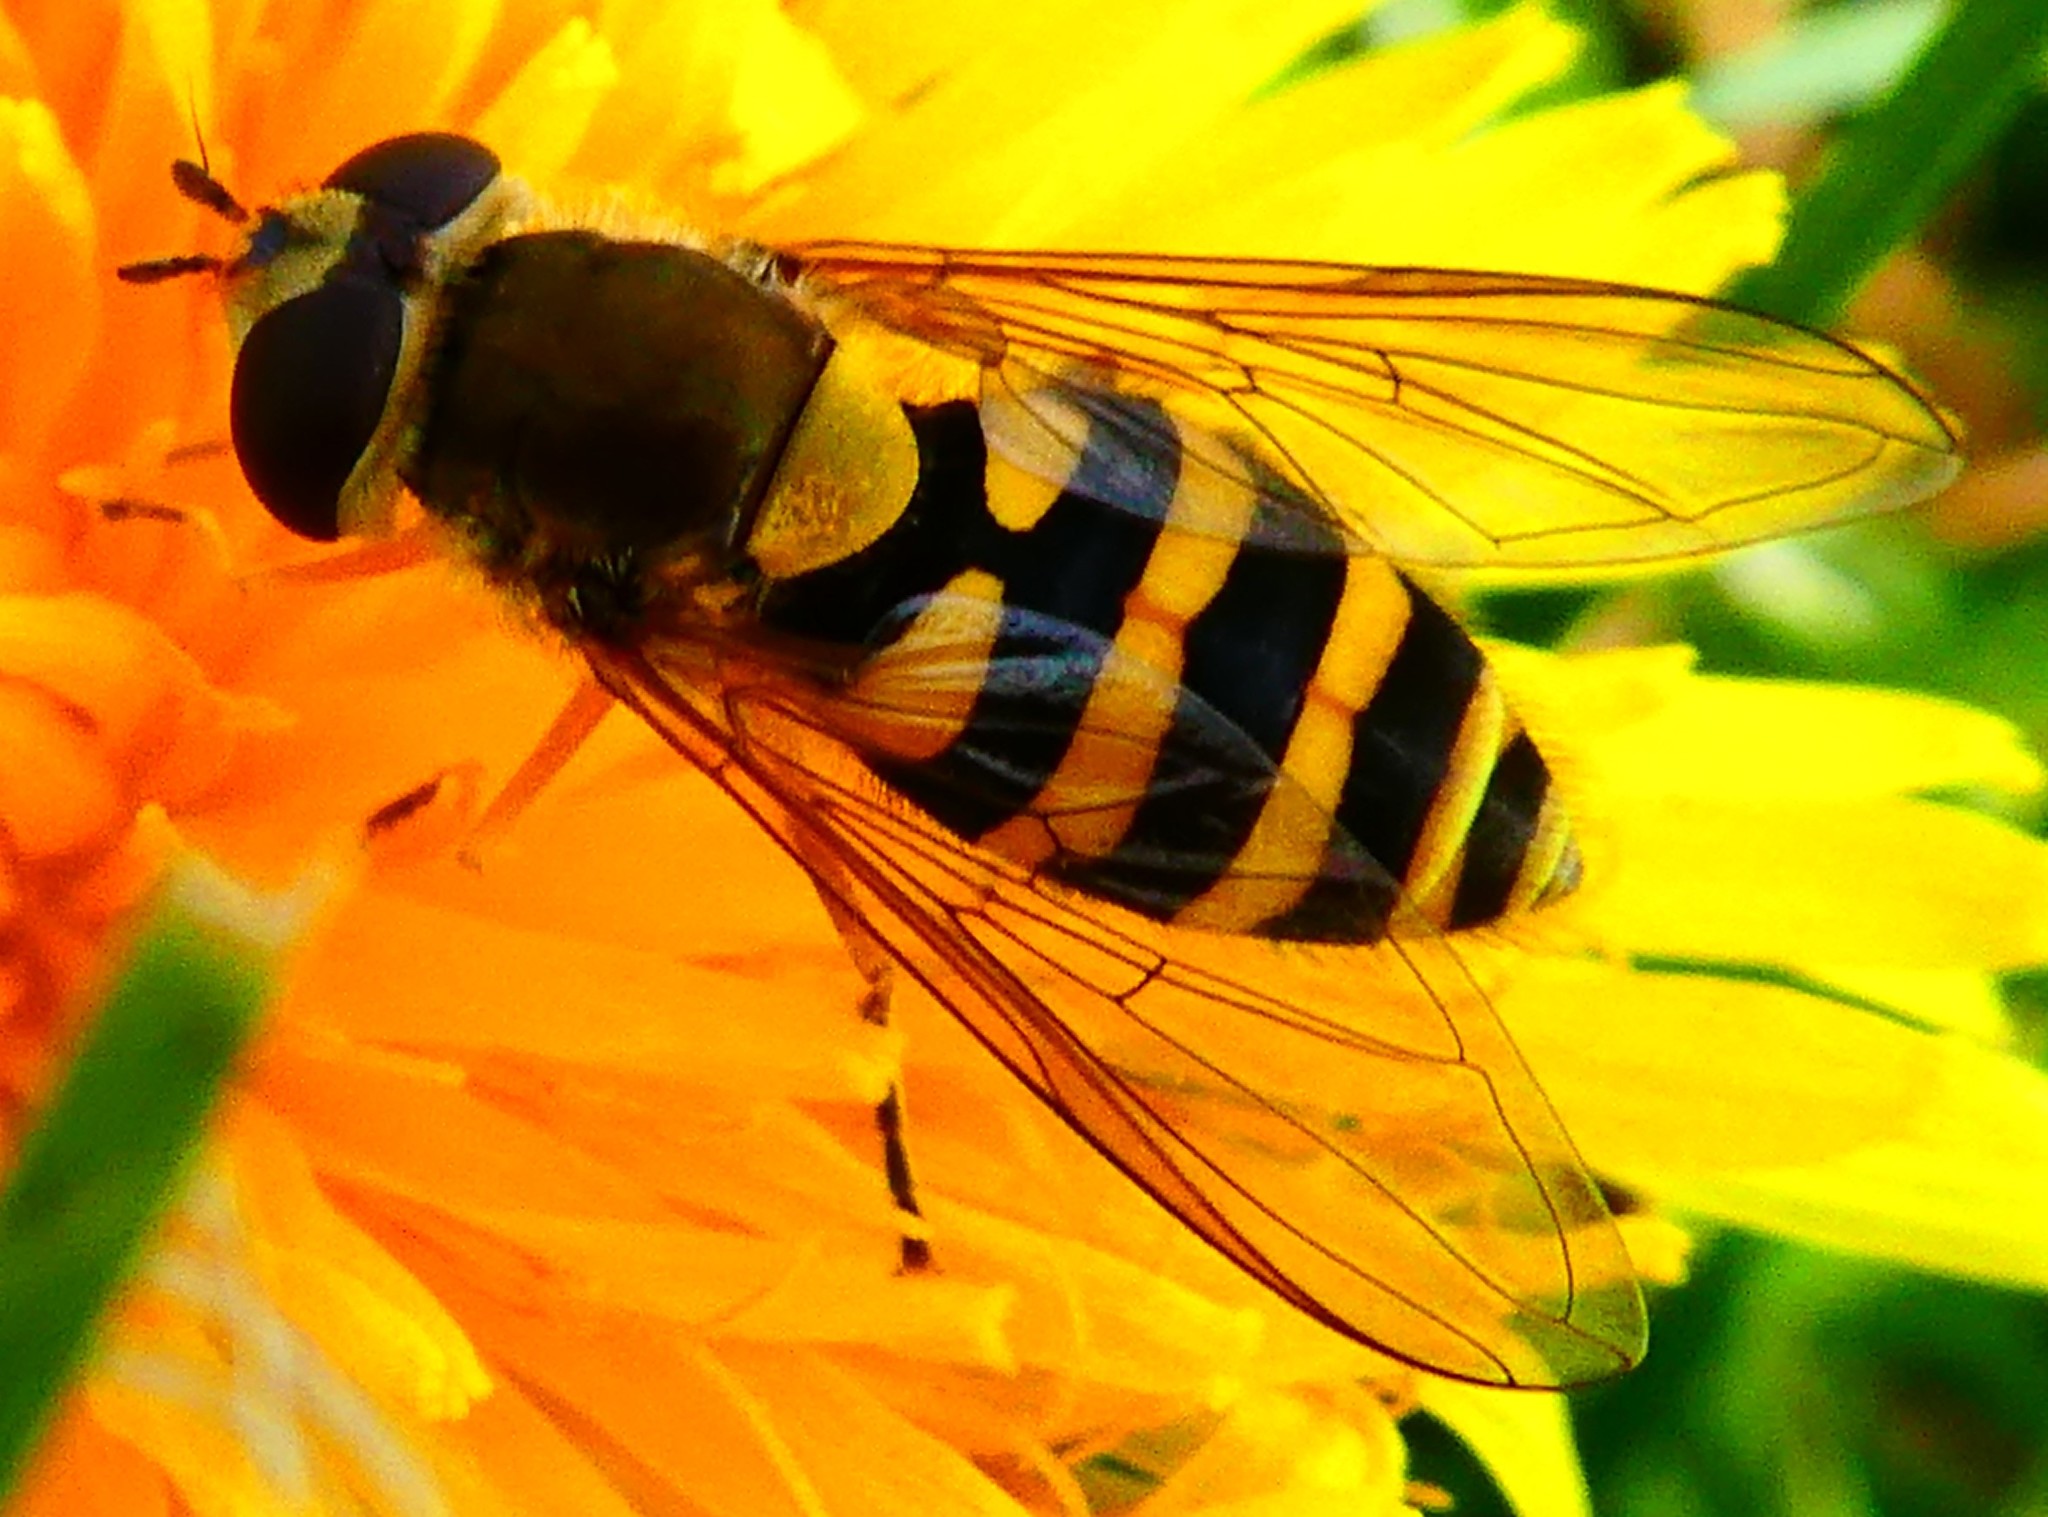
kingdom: Animalia
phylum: Arthropoda
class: Insecta
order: Diptera
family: Syrphidae
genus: Syrphus
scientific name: Syrphus ribesii
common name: Common flower fly
